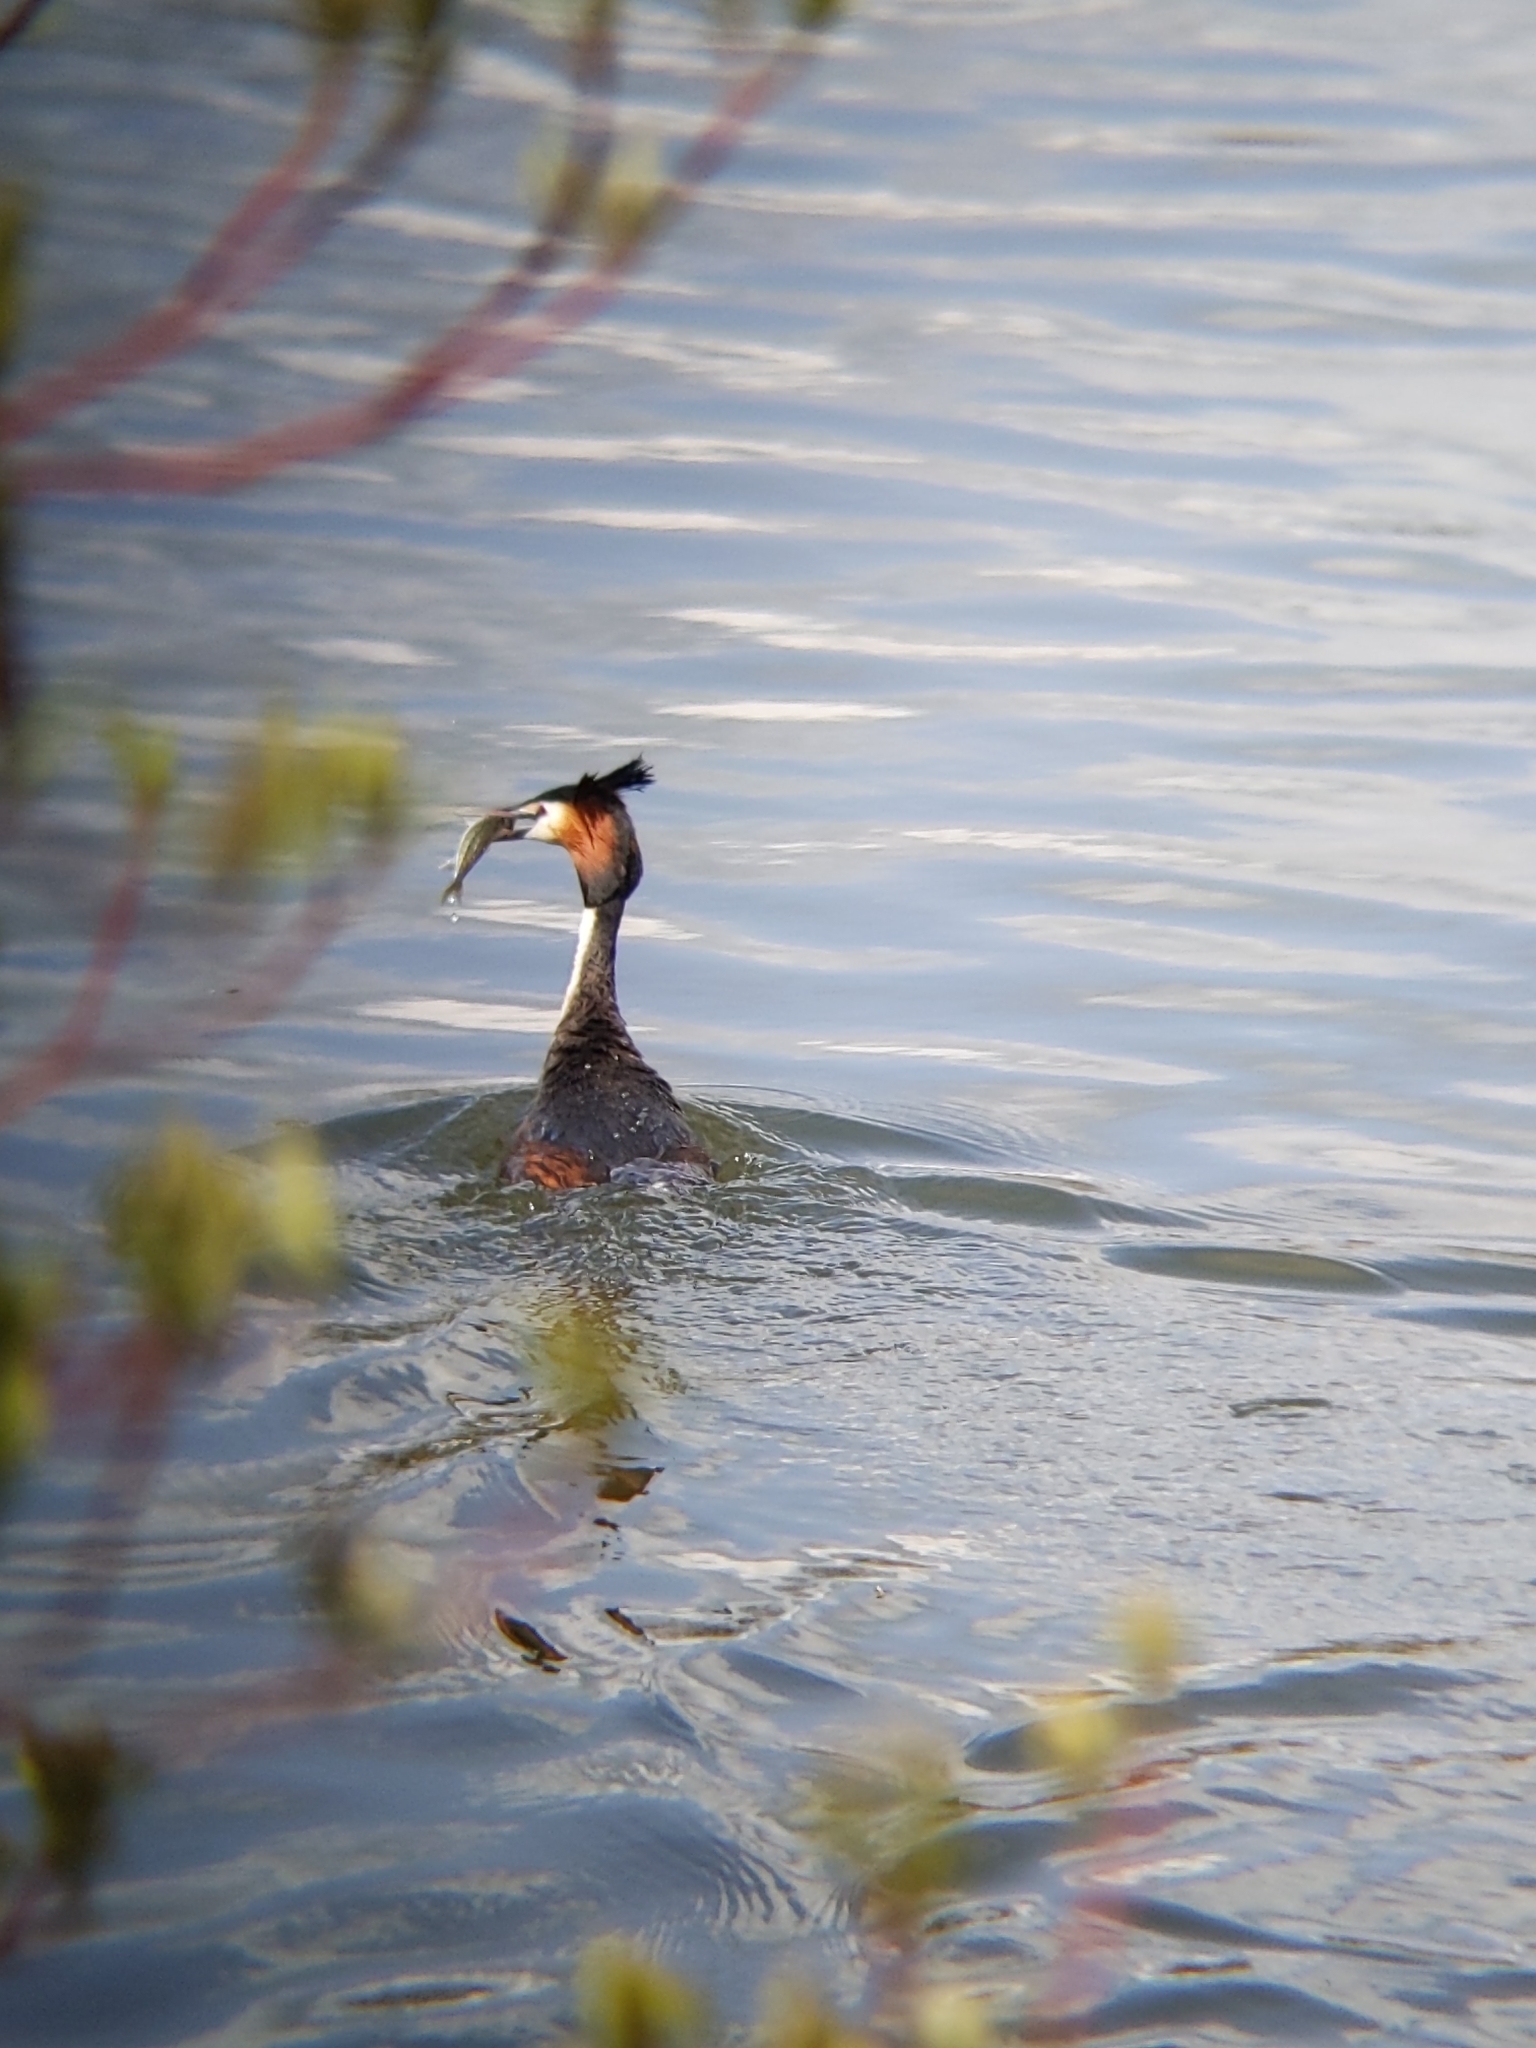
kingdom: Animalia
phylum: Chordata
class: Aves
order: Podicipediformes
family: Podicipedidae
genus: Podiceps
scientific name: Podiceps cristatus
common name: Great crested grebe
